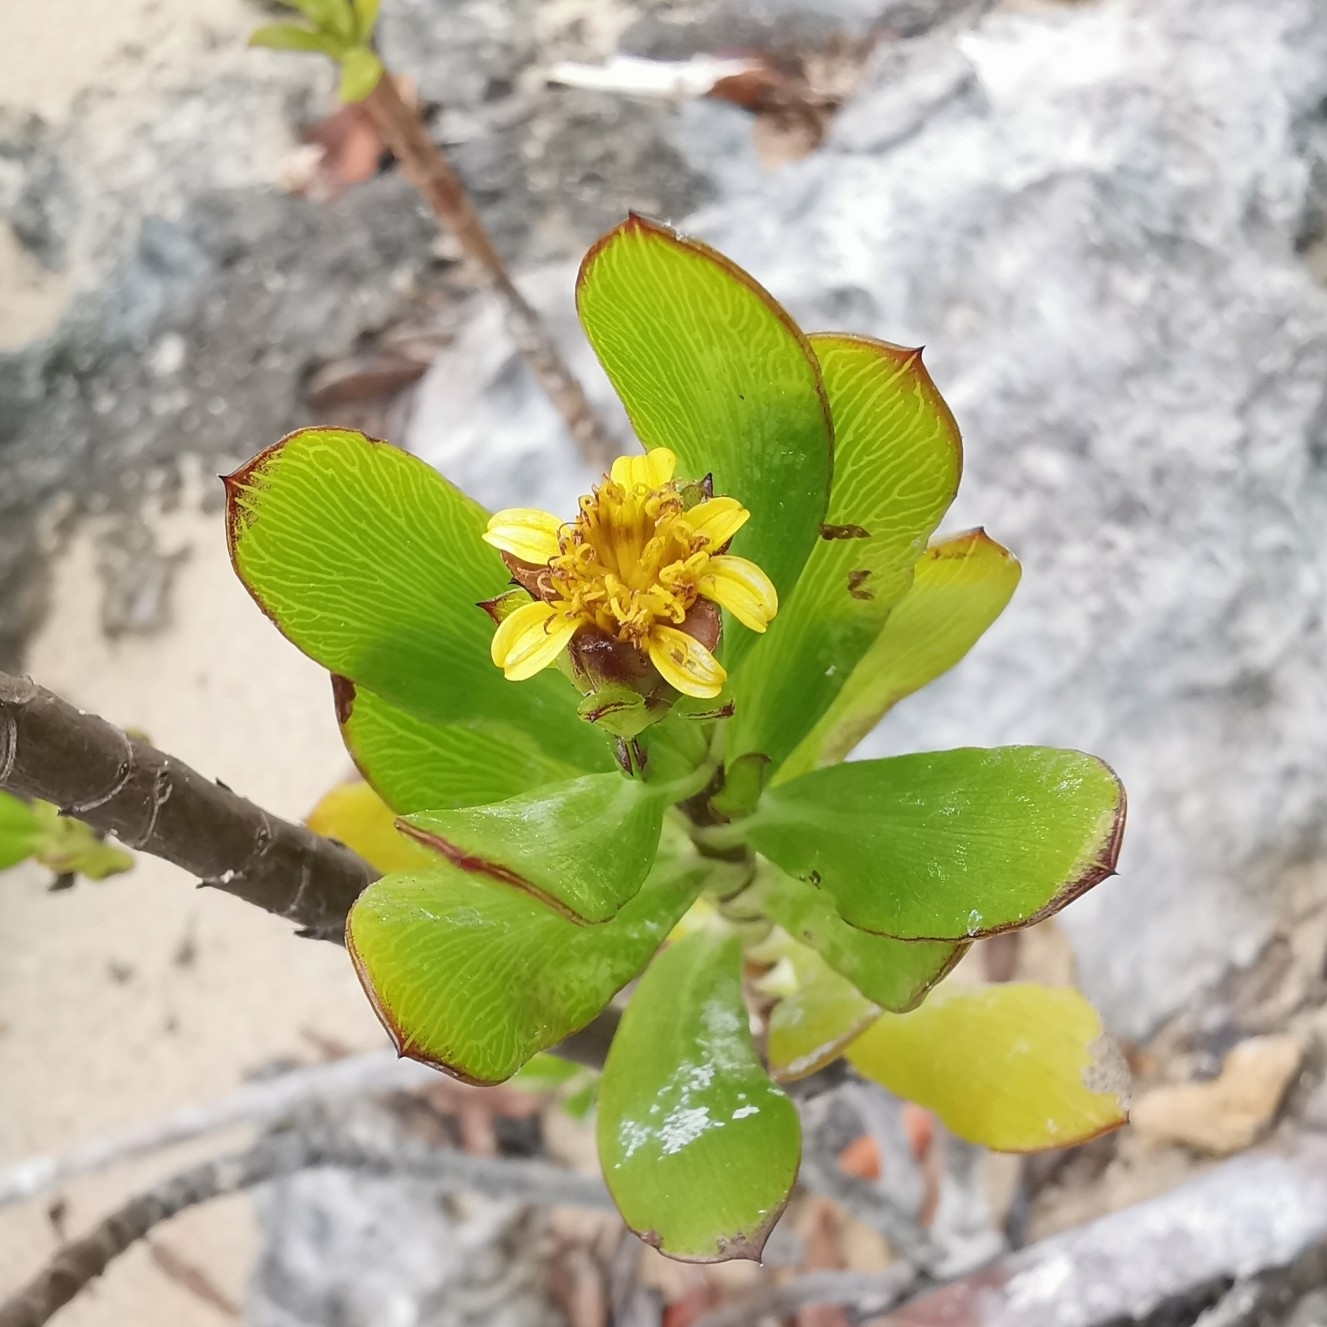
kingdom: Plantae
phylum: Tracheophyta
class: Magnoliopsida
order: Asterales
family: Asteraceae
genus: Borrichia
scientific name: Borrichia arborescens
